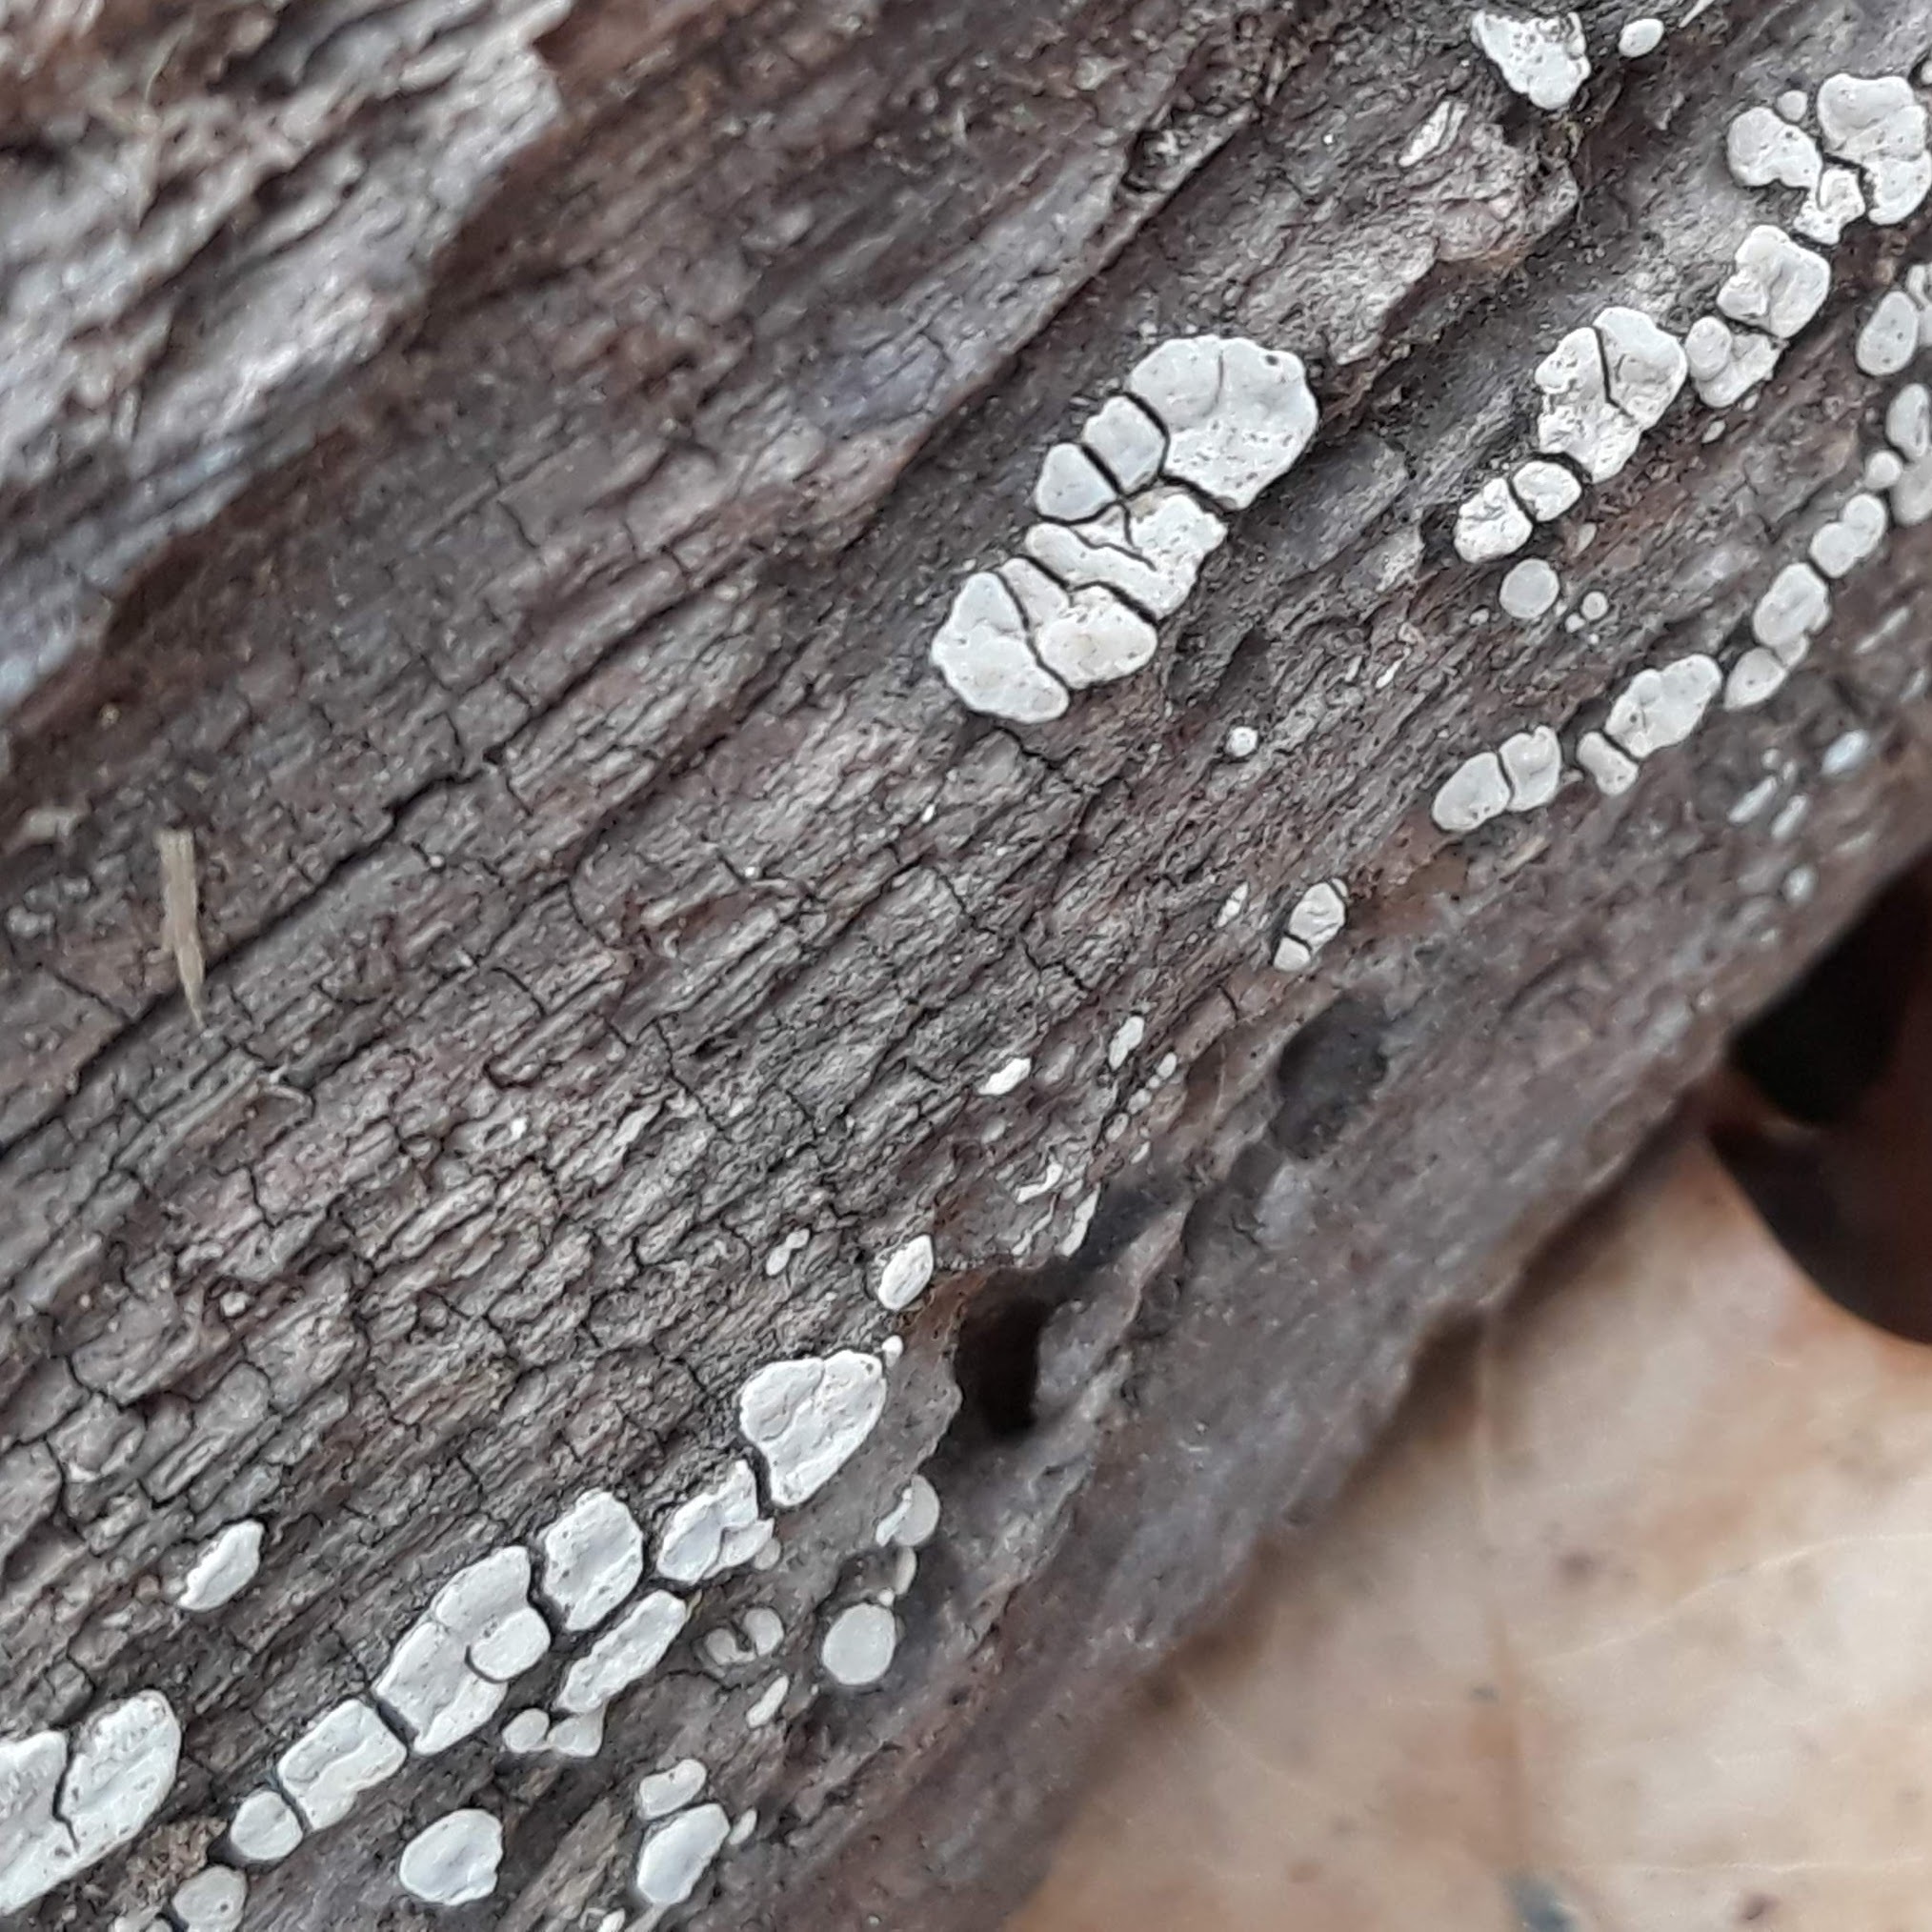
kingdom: Fungi
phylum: Basidiomycota
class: Agaricomycetes
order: Russulales
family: Stereaceae
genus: Xylobolus
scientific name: Xylobolus frustulatus
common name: Ceramic parchment
